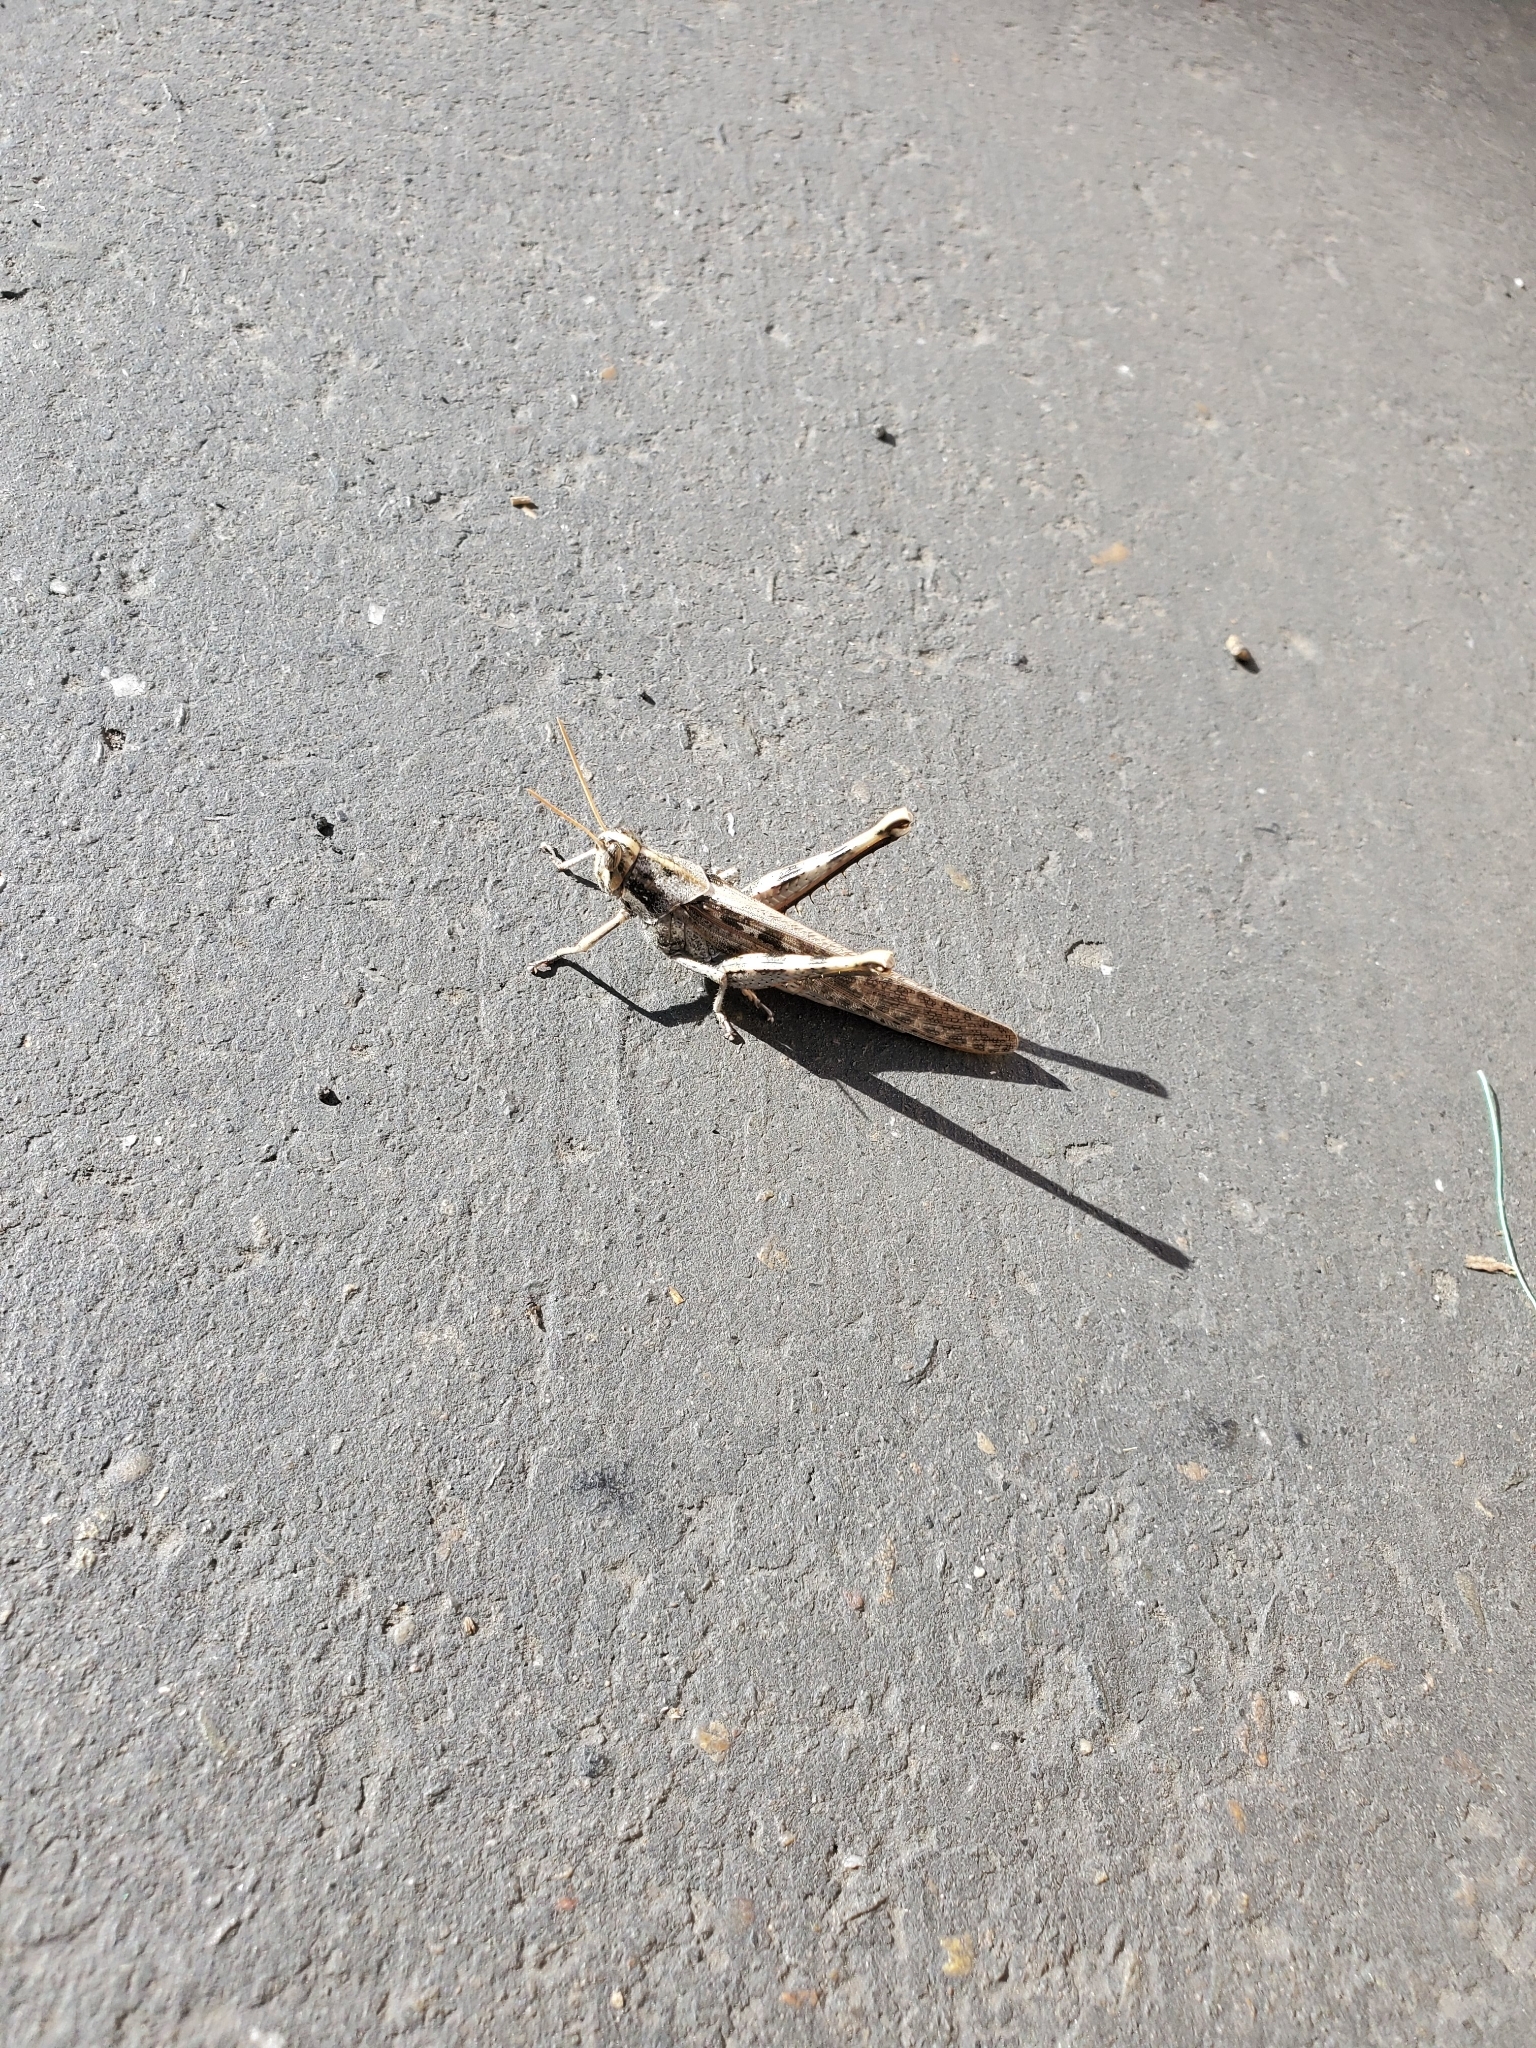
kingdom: Animalia
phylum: Arthropoda
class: Insecta
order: Orthoptera
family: Acrididae
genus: Schistocerca
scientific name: Schistocerca nitens
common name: Vagrant grasshopper
